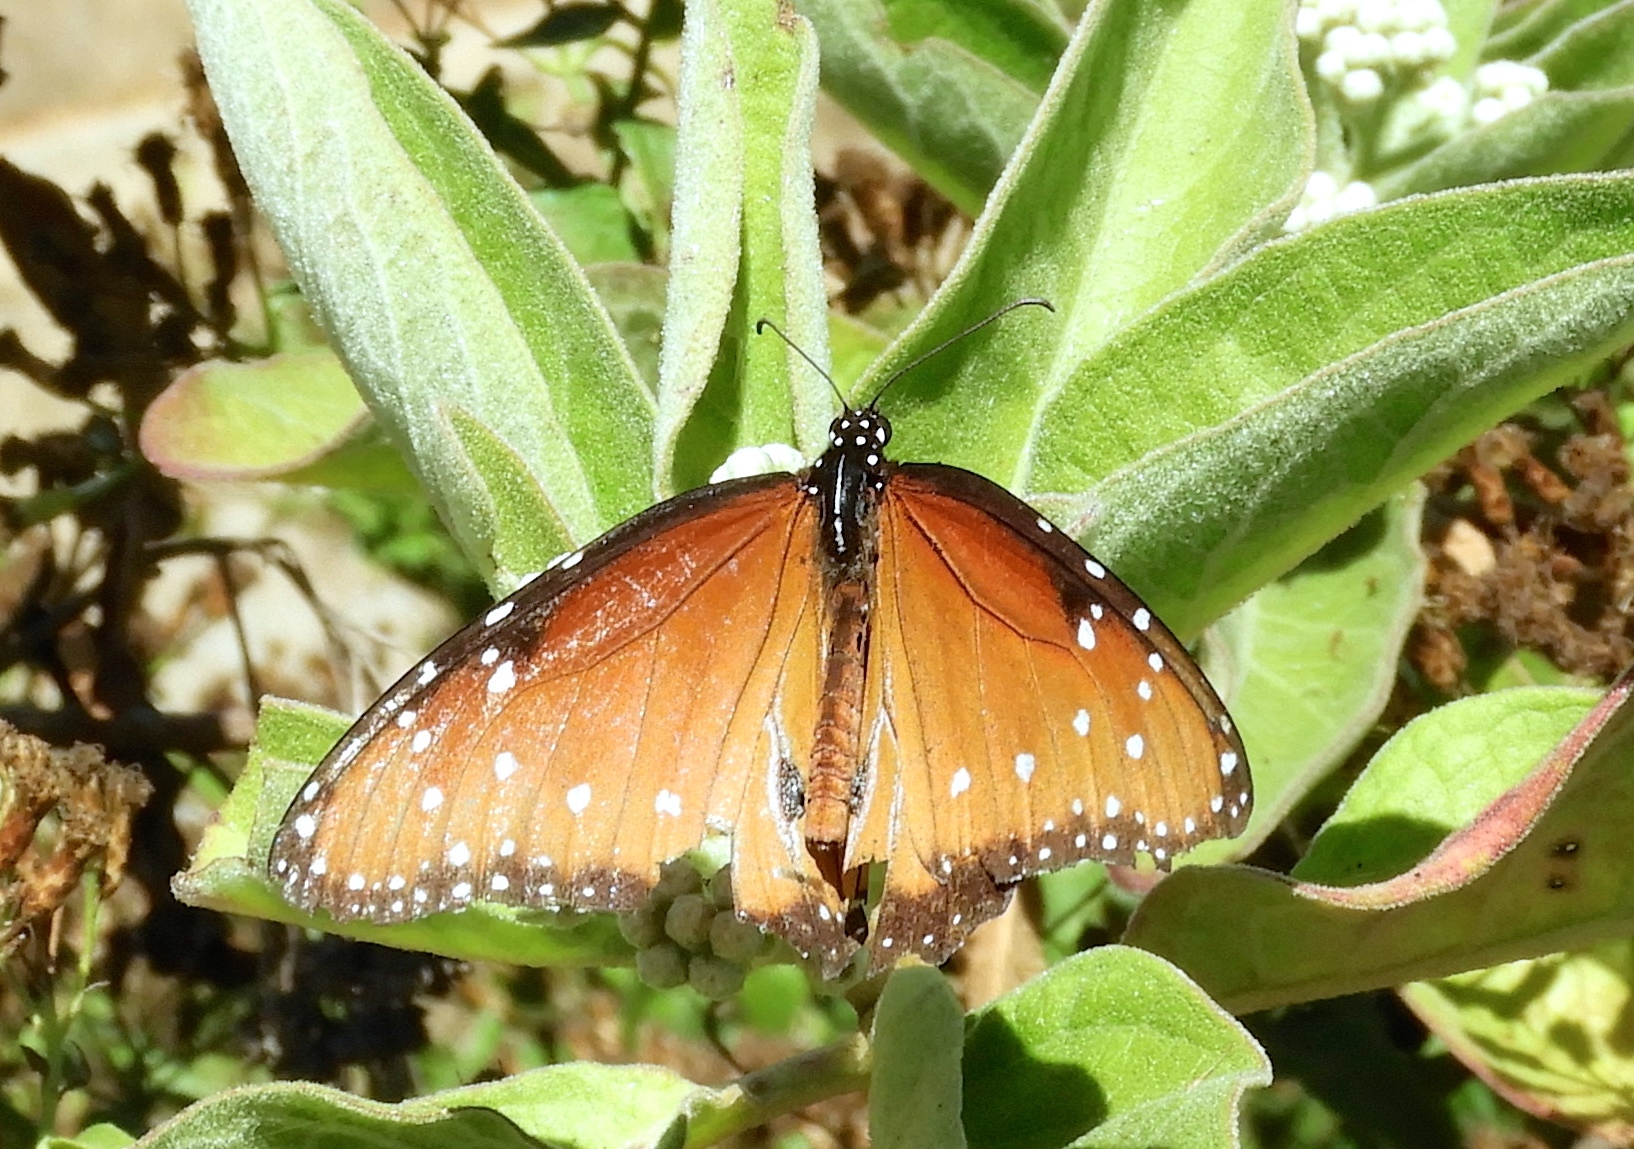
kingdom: Animalia
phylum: Arthropoda
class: Insecta
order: Lepidoptera
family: Nymphalidae
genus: Danaus
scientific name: Danaus gilippus
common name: Queen
